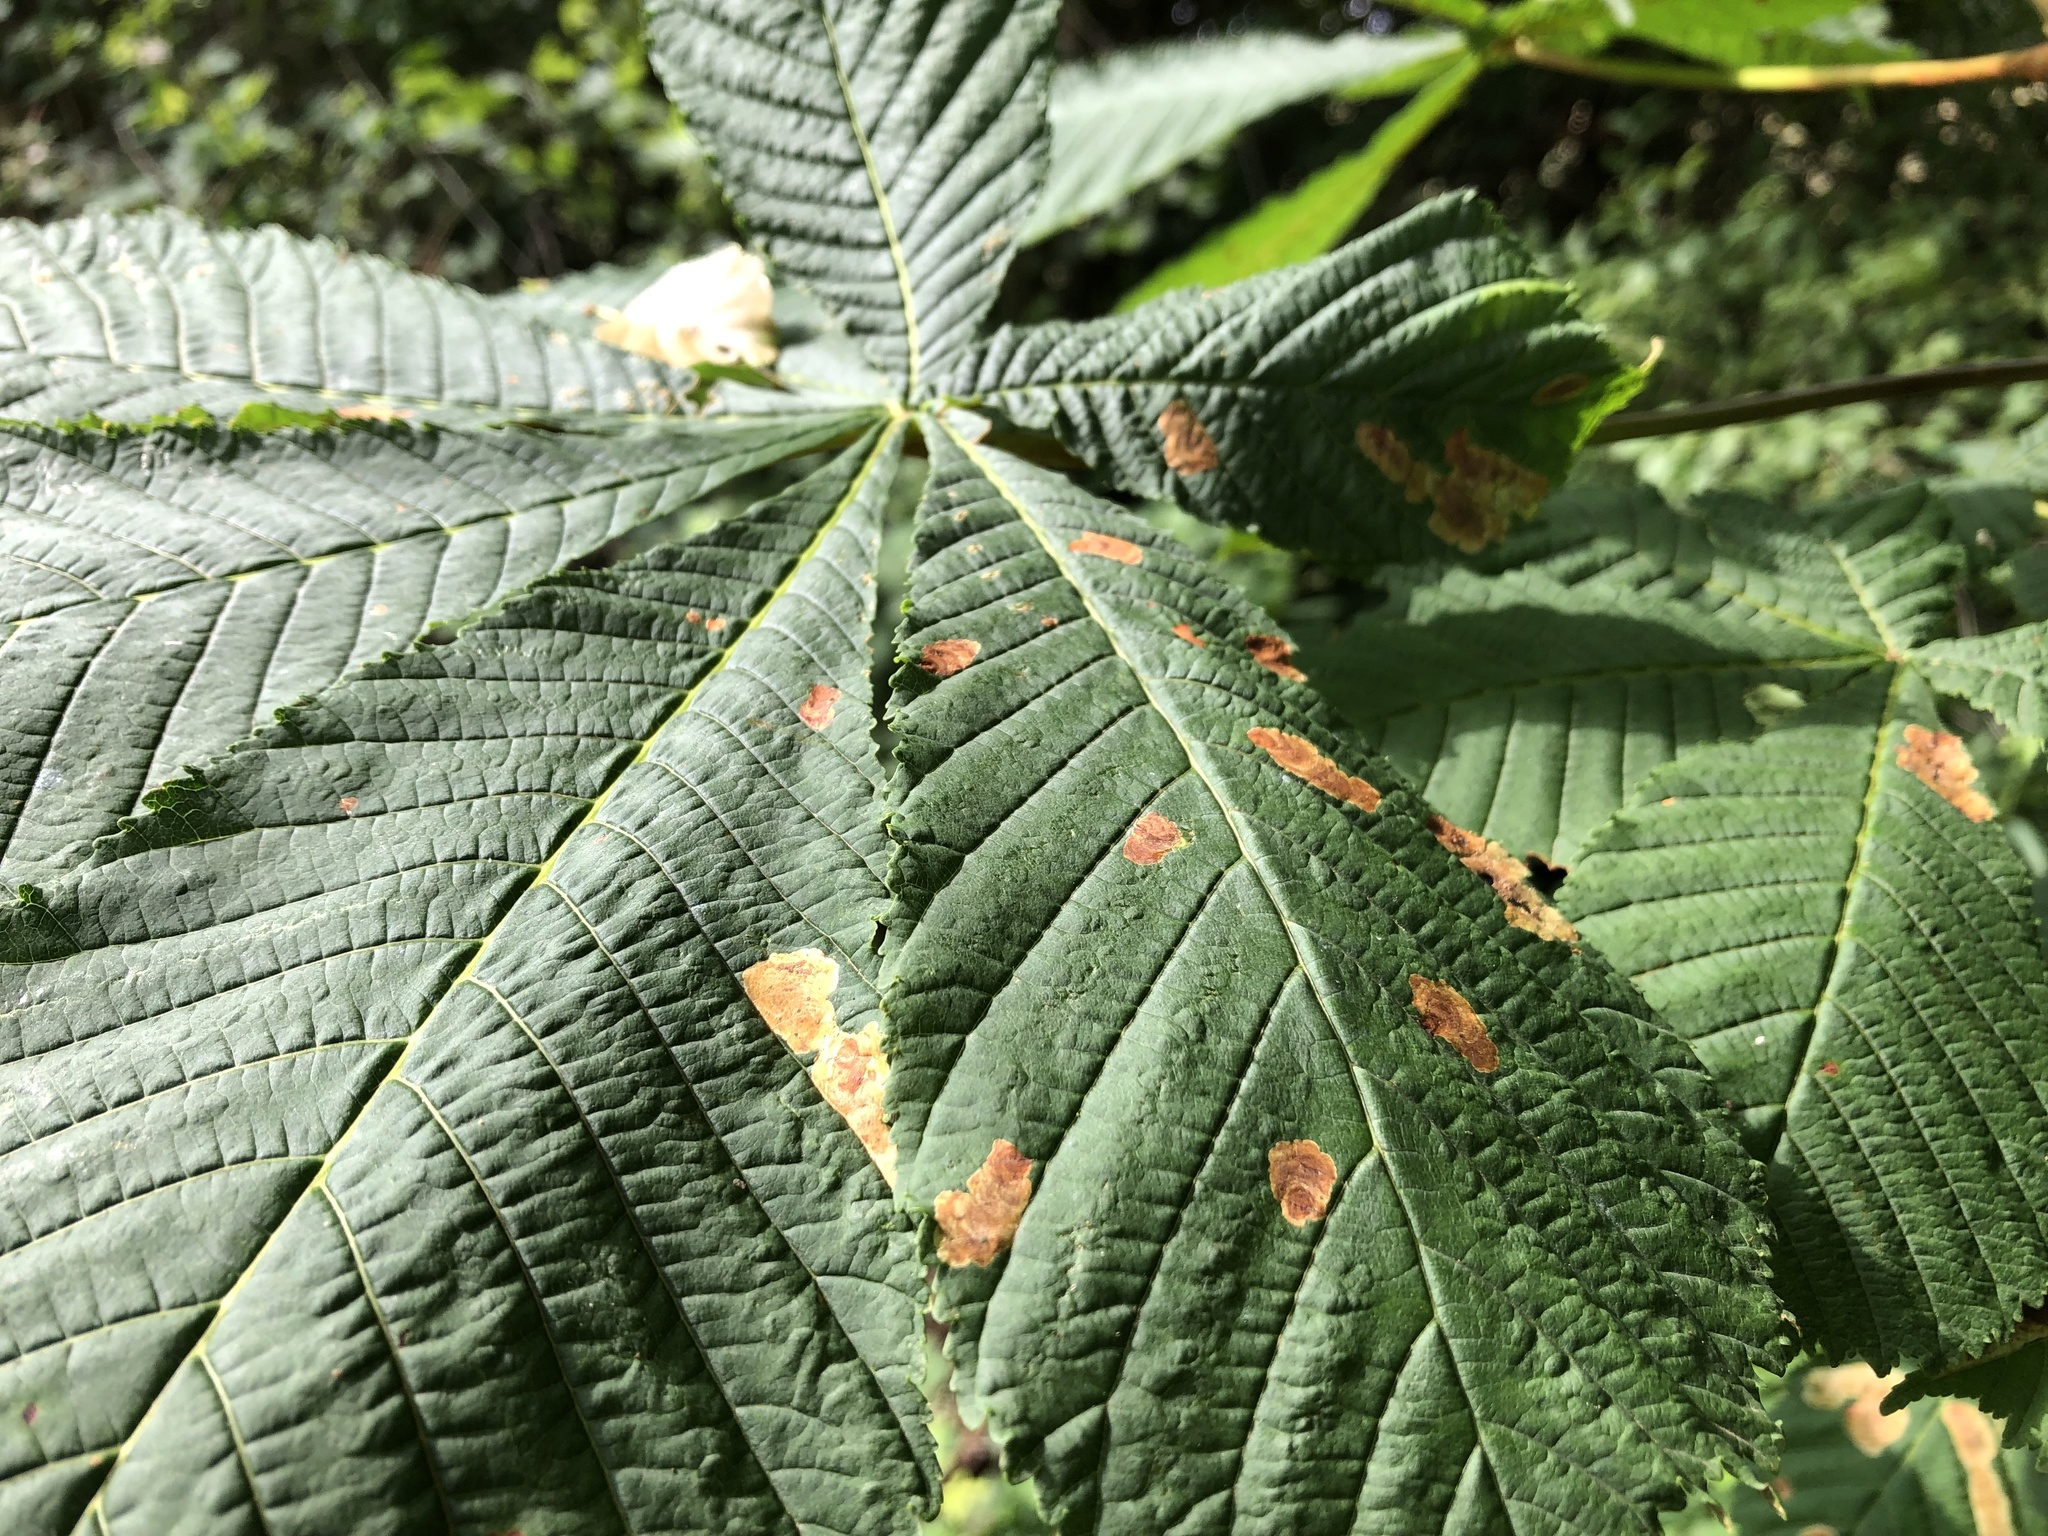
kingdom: Animalia
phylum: Arthropoda
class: Insecta
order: Lepidoptera
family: Gracillariidae
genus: Cameraria
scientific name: Cameraria ohridella
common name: Horse-chestnut leaf-miner
